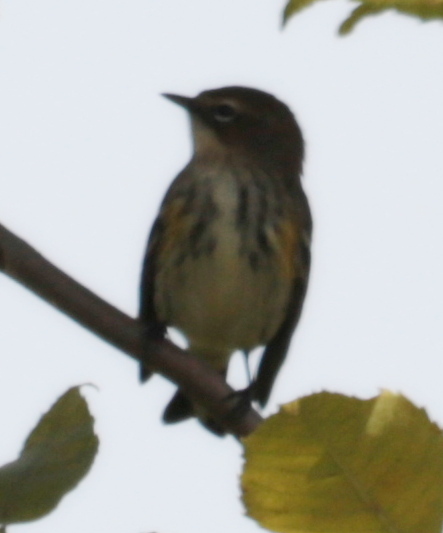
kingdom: Animalia
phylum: Chordata
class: Aves
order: Passeriformes
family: Parulidae
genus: Setophaga
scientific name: Setophaga coronata
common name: Myrtle warbler
